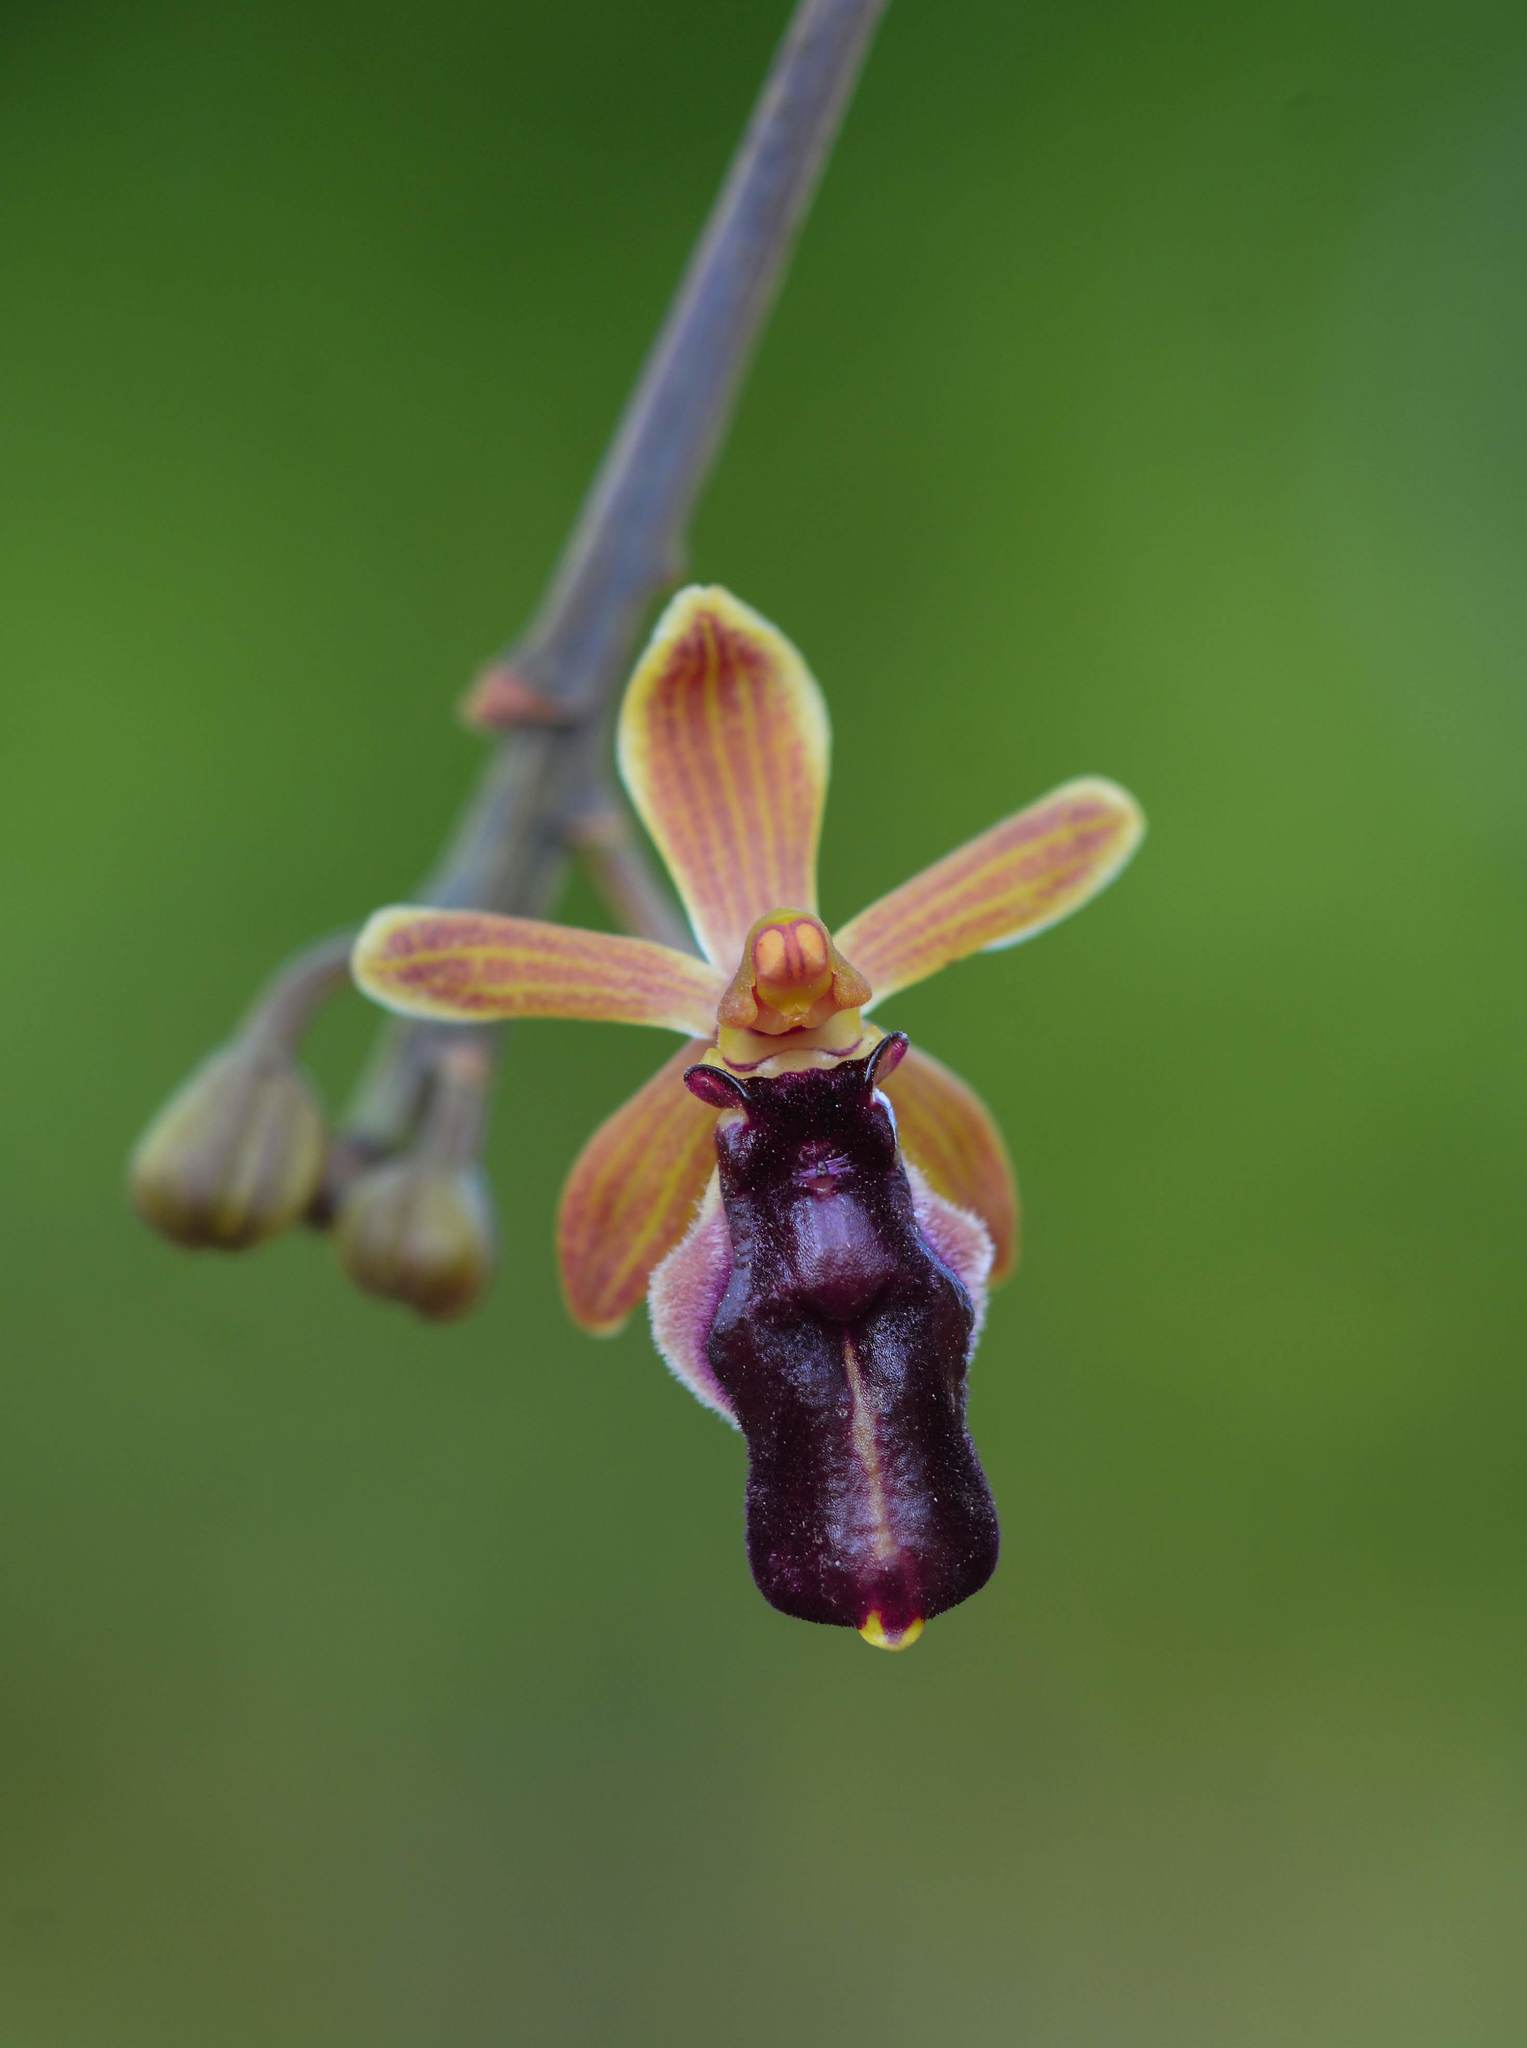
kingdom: Plantae
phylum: Tracheophyta
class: Liliopsida
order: Asparagales
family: Orchidaceae
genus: Cottonia
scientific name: Cottonia peduncularis
